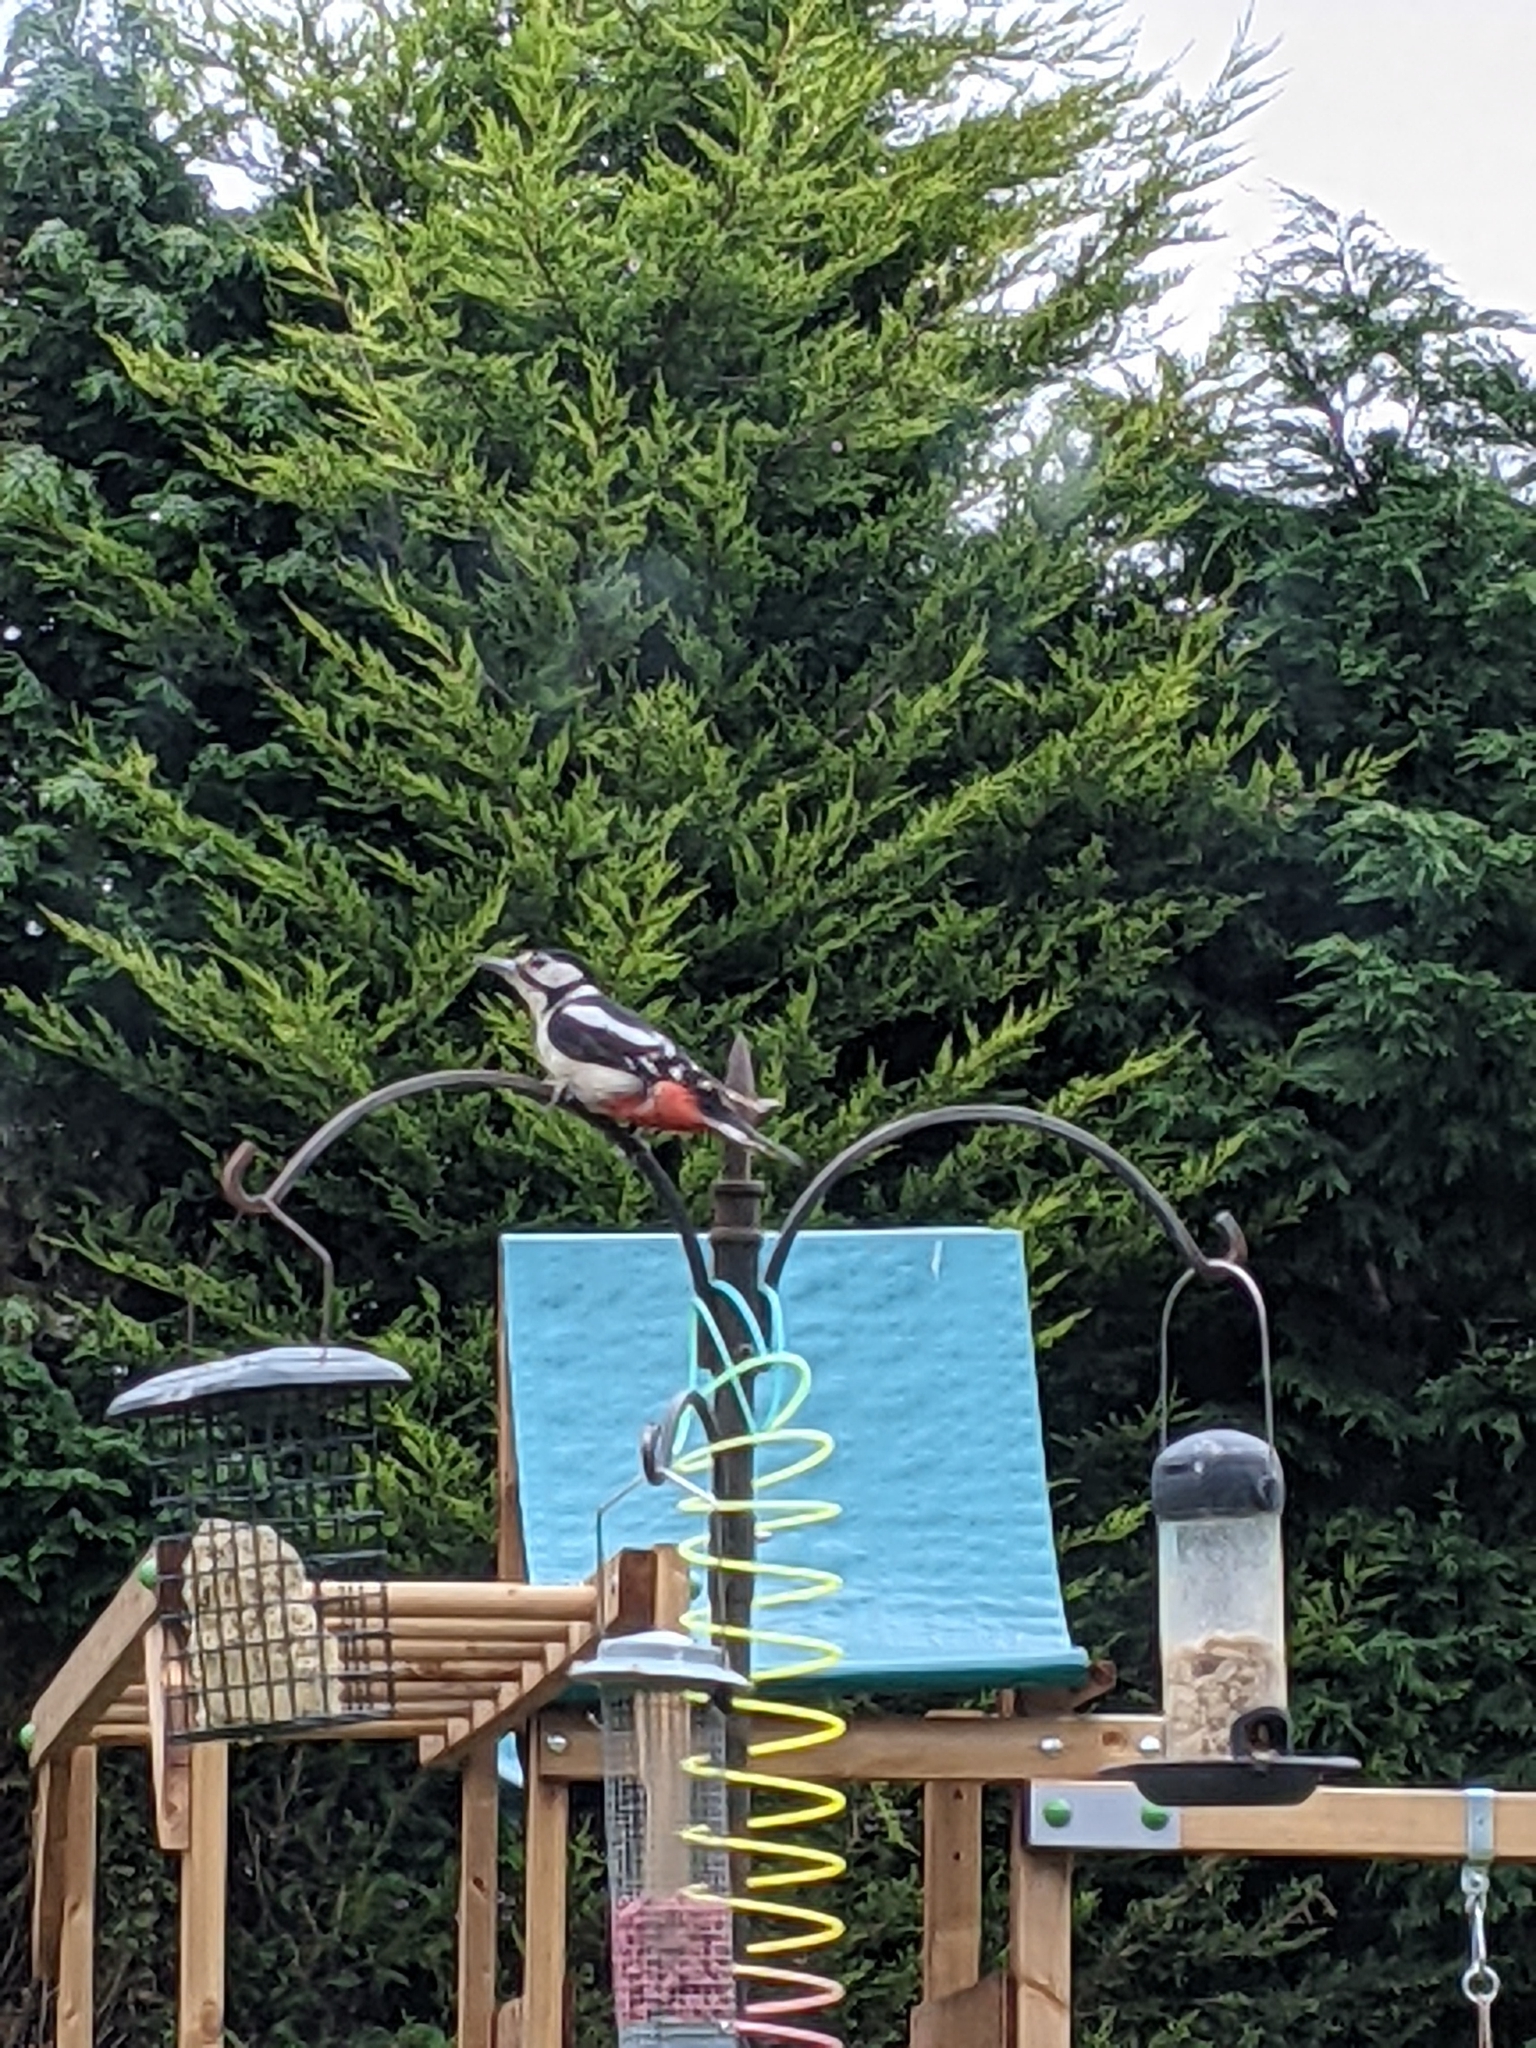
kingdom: Animalia
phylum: Chordata
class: Aves
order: Piciformes
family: Picidae
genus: Dendrocopos
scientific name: Dendrocopos major
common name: Great spotted woodpecker
